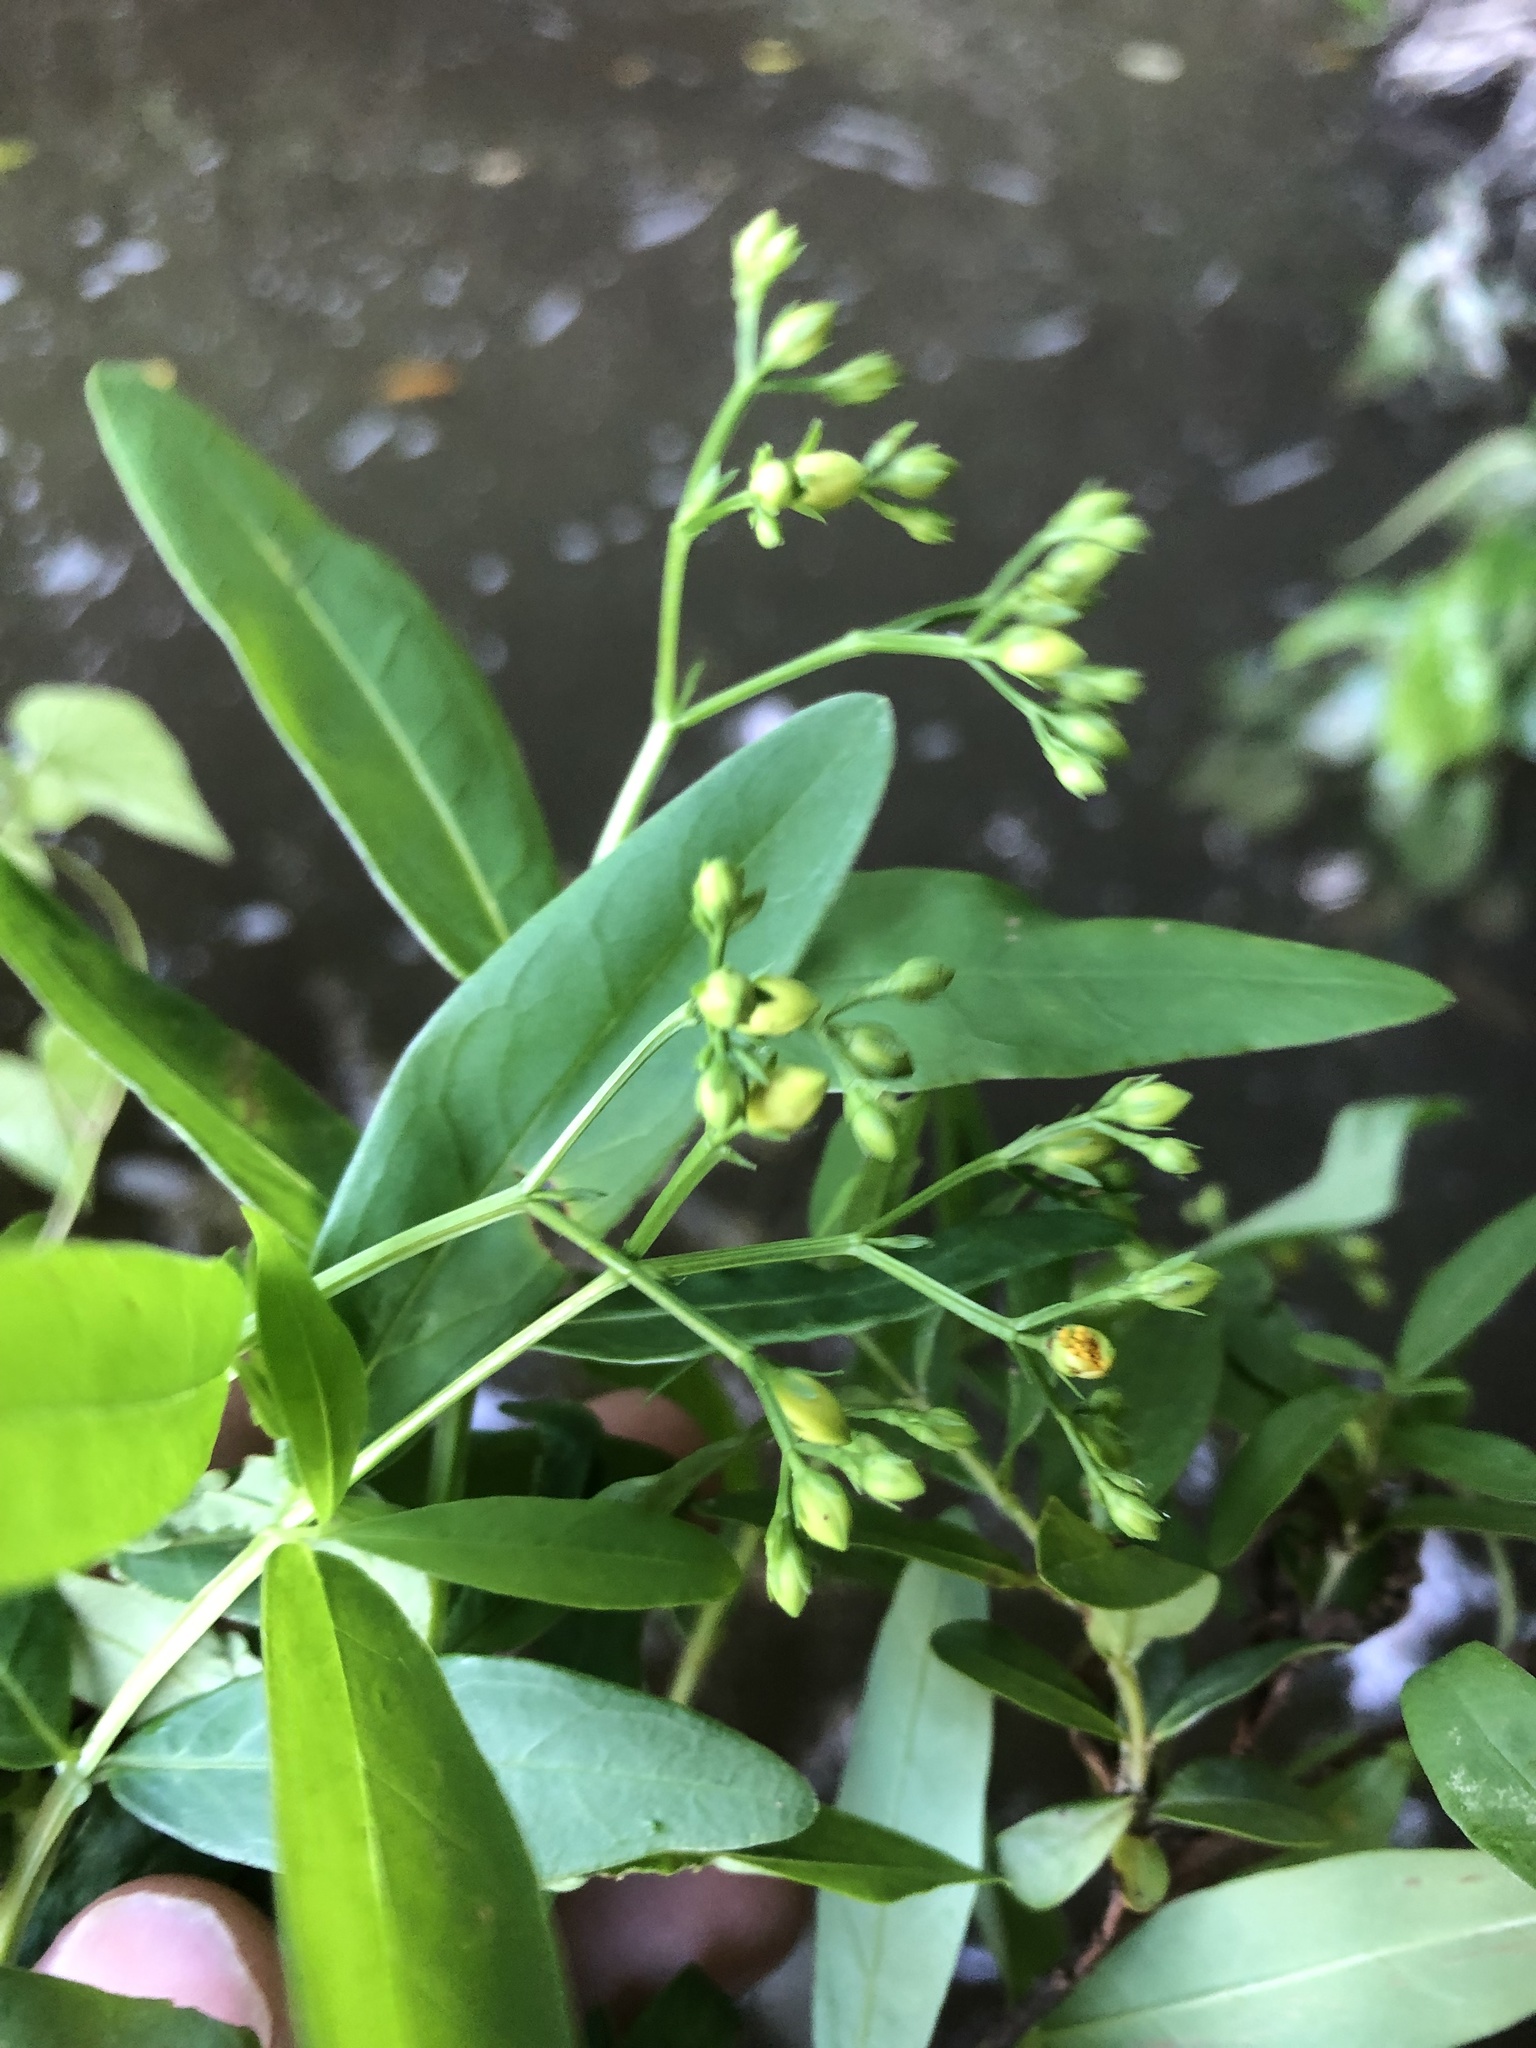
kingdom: Plantae
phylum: Tracheophyta
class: Magnoliopsida
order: Malpighiales
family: Hypericaceae
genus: Hypericum
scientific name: Hypericum nudiflorum
